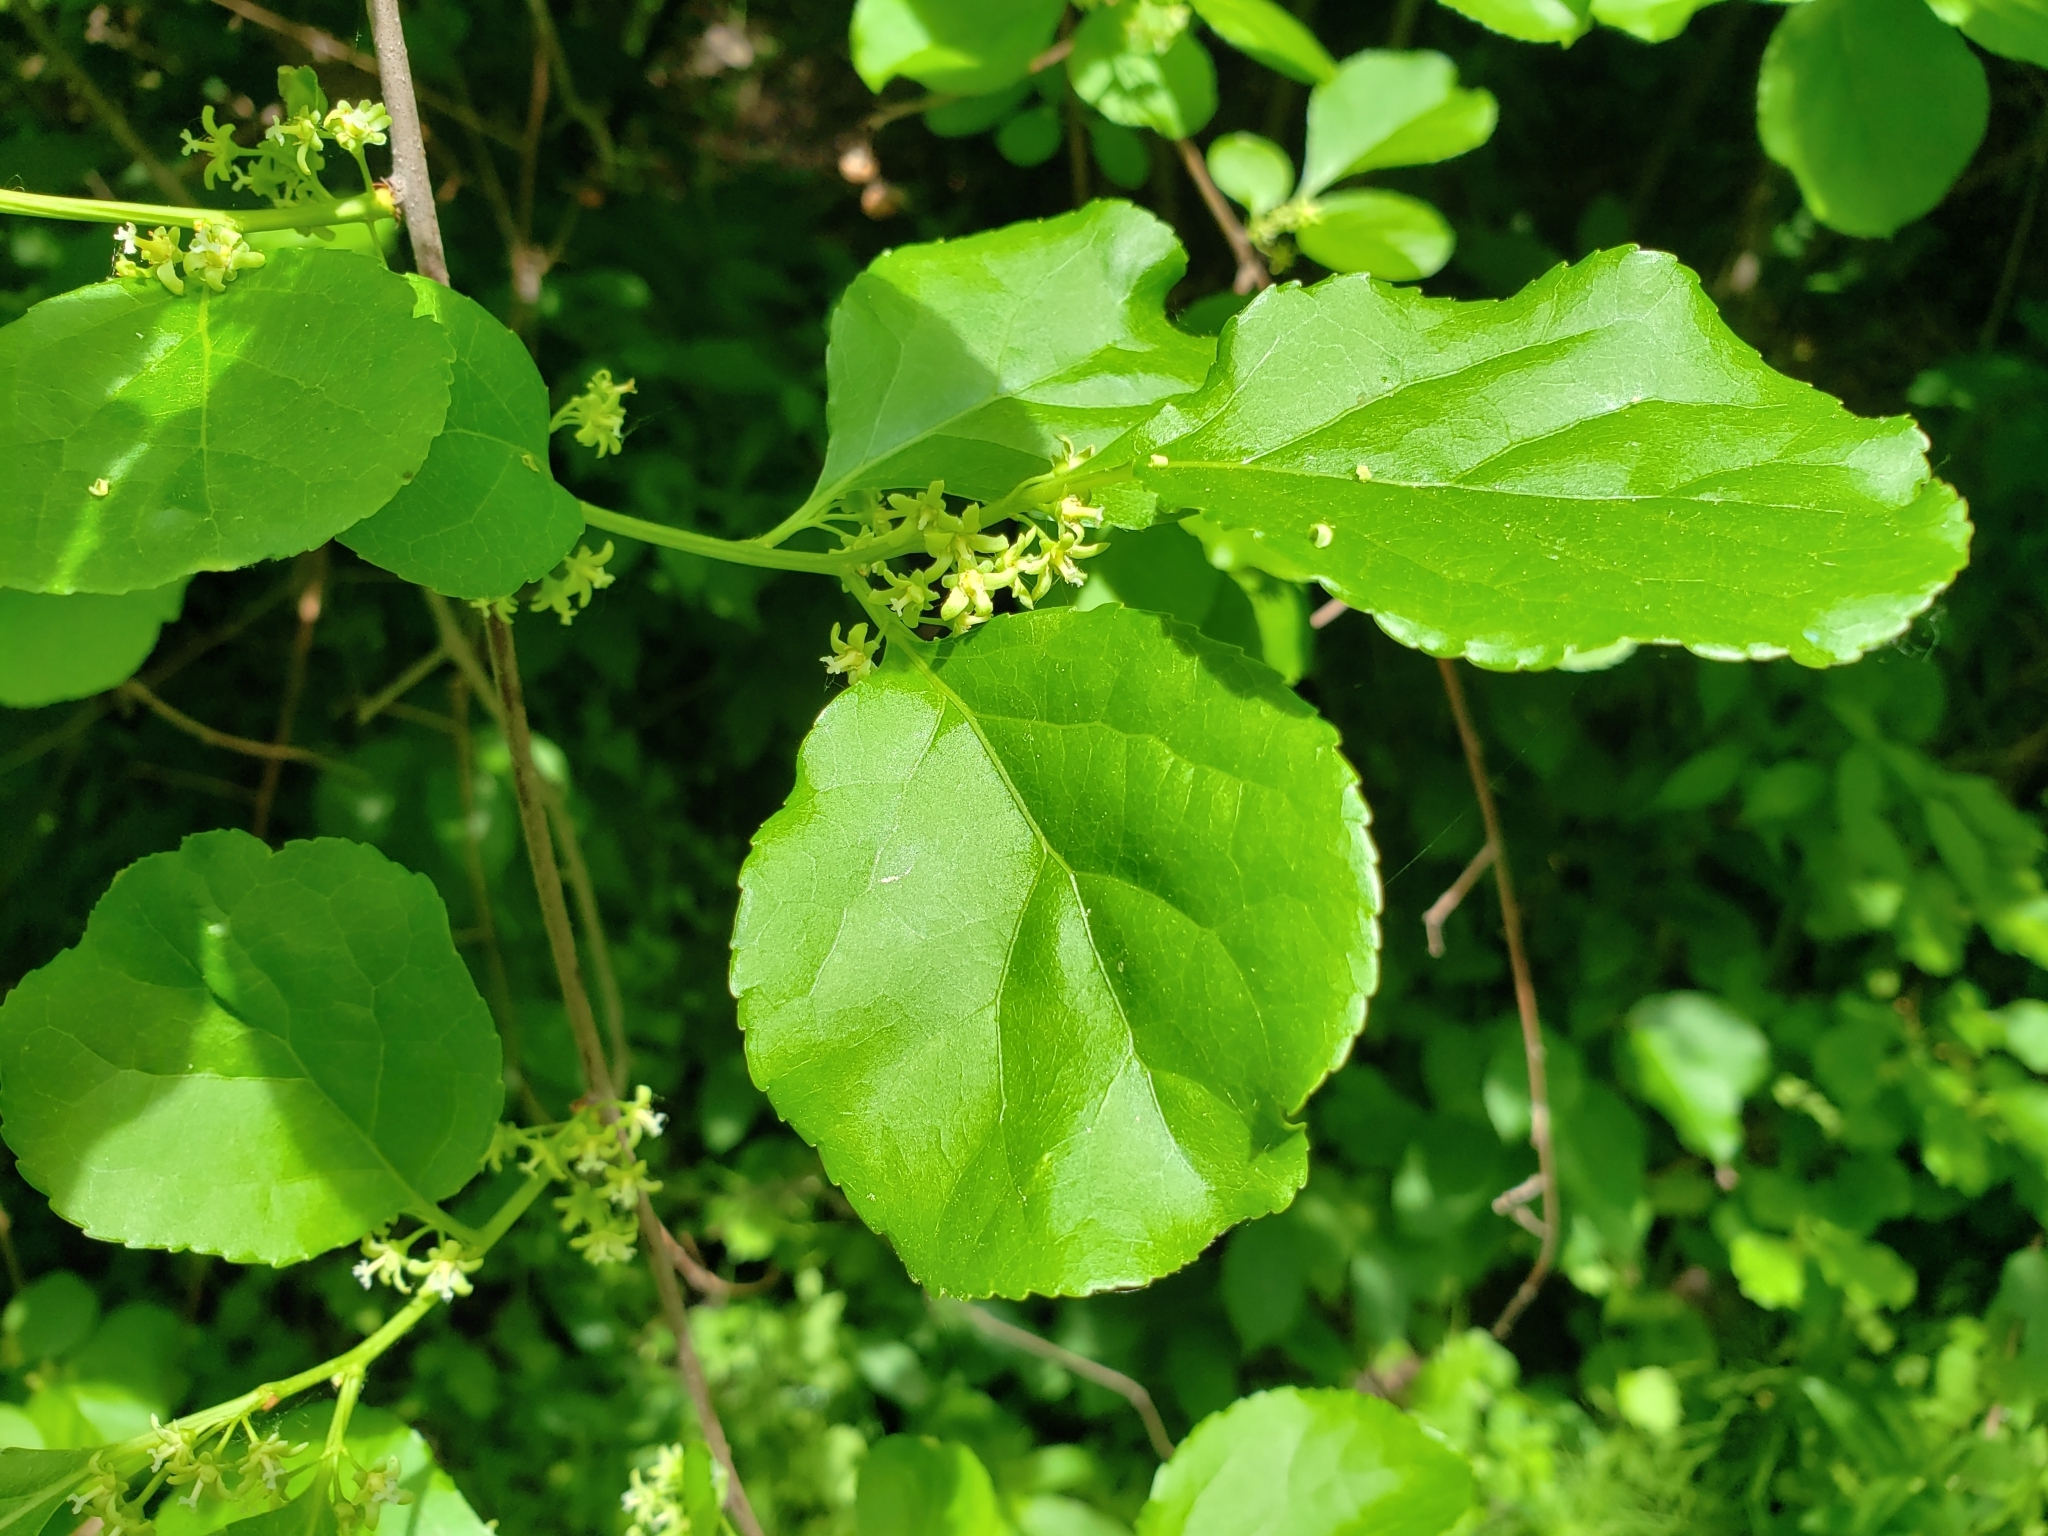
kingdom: Plantae
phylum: Tracheophyta
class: Magnoliopsida
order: Celastrales
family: Celastraceae
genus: Celastrus
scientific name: Celastrus orbiculatus
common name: Oriental bittersweet
